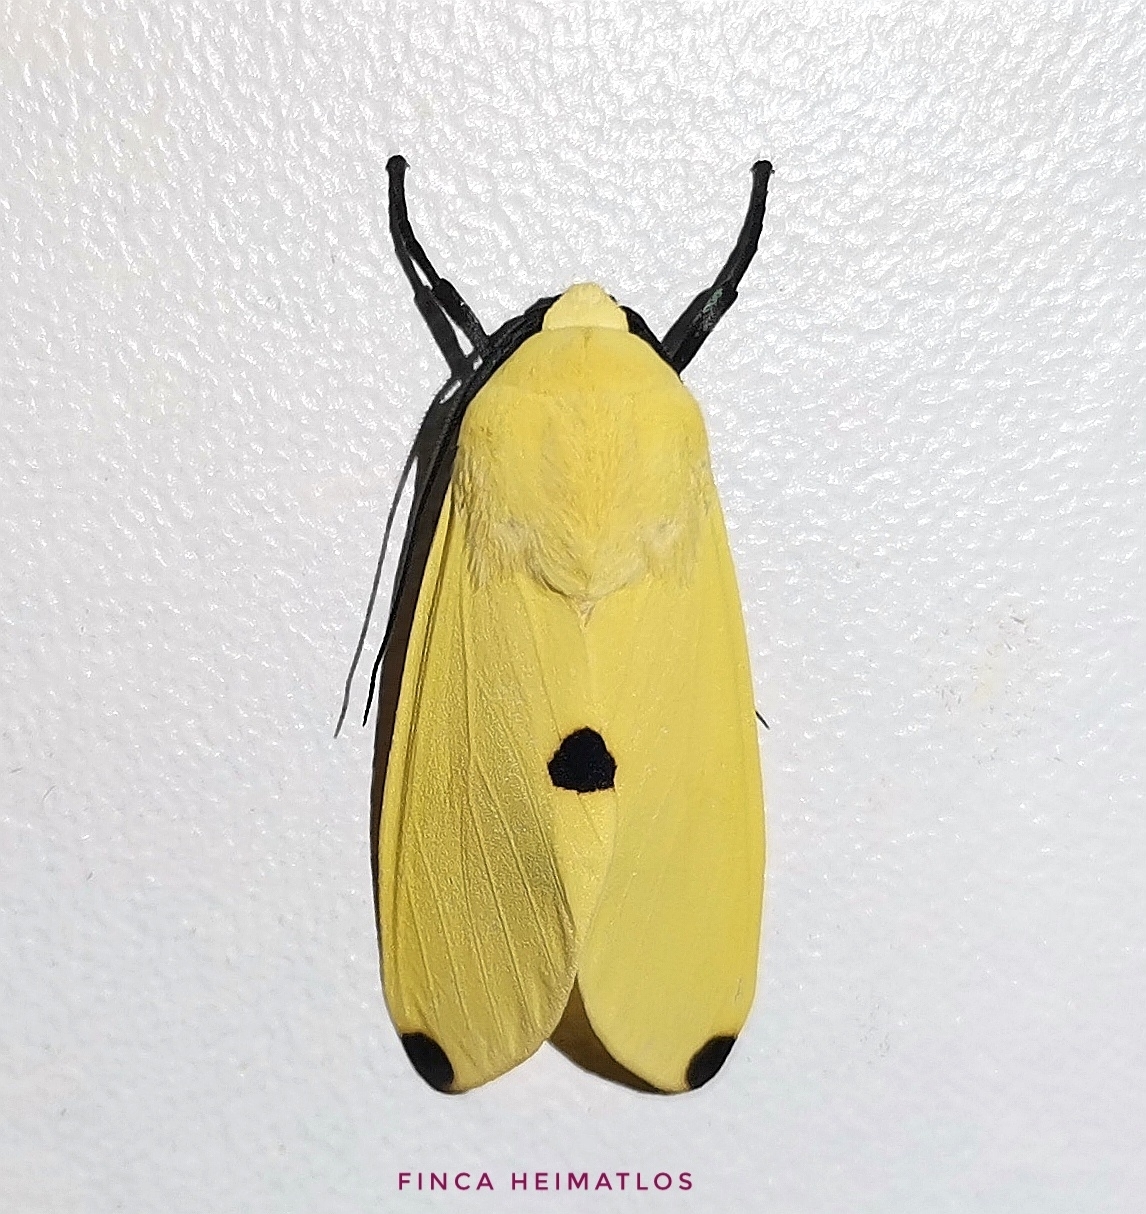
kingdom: Animalia
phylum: Arthropoda
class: Insecta
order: Lepidoptera
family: Erebidae
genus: Viviennea
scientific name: Viviennea superba
